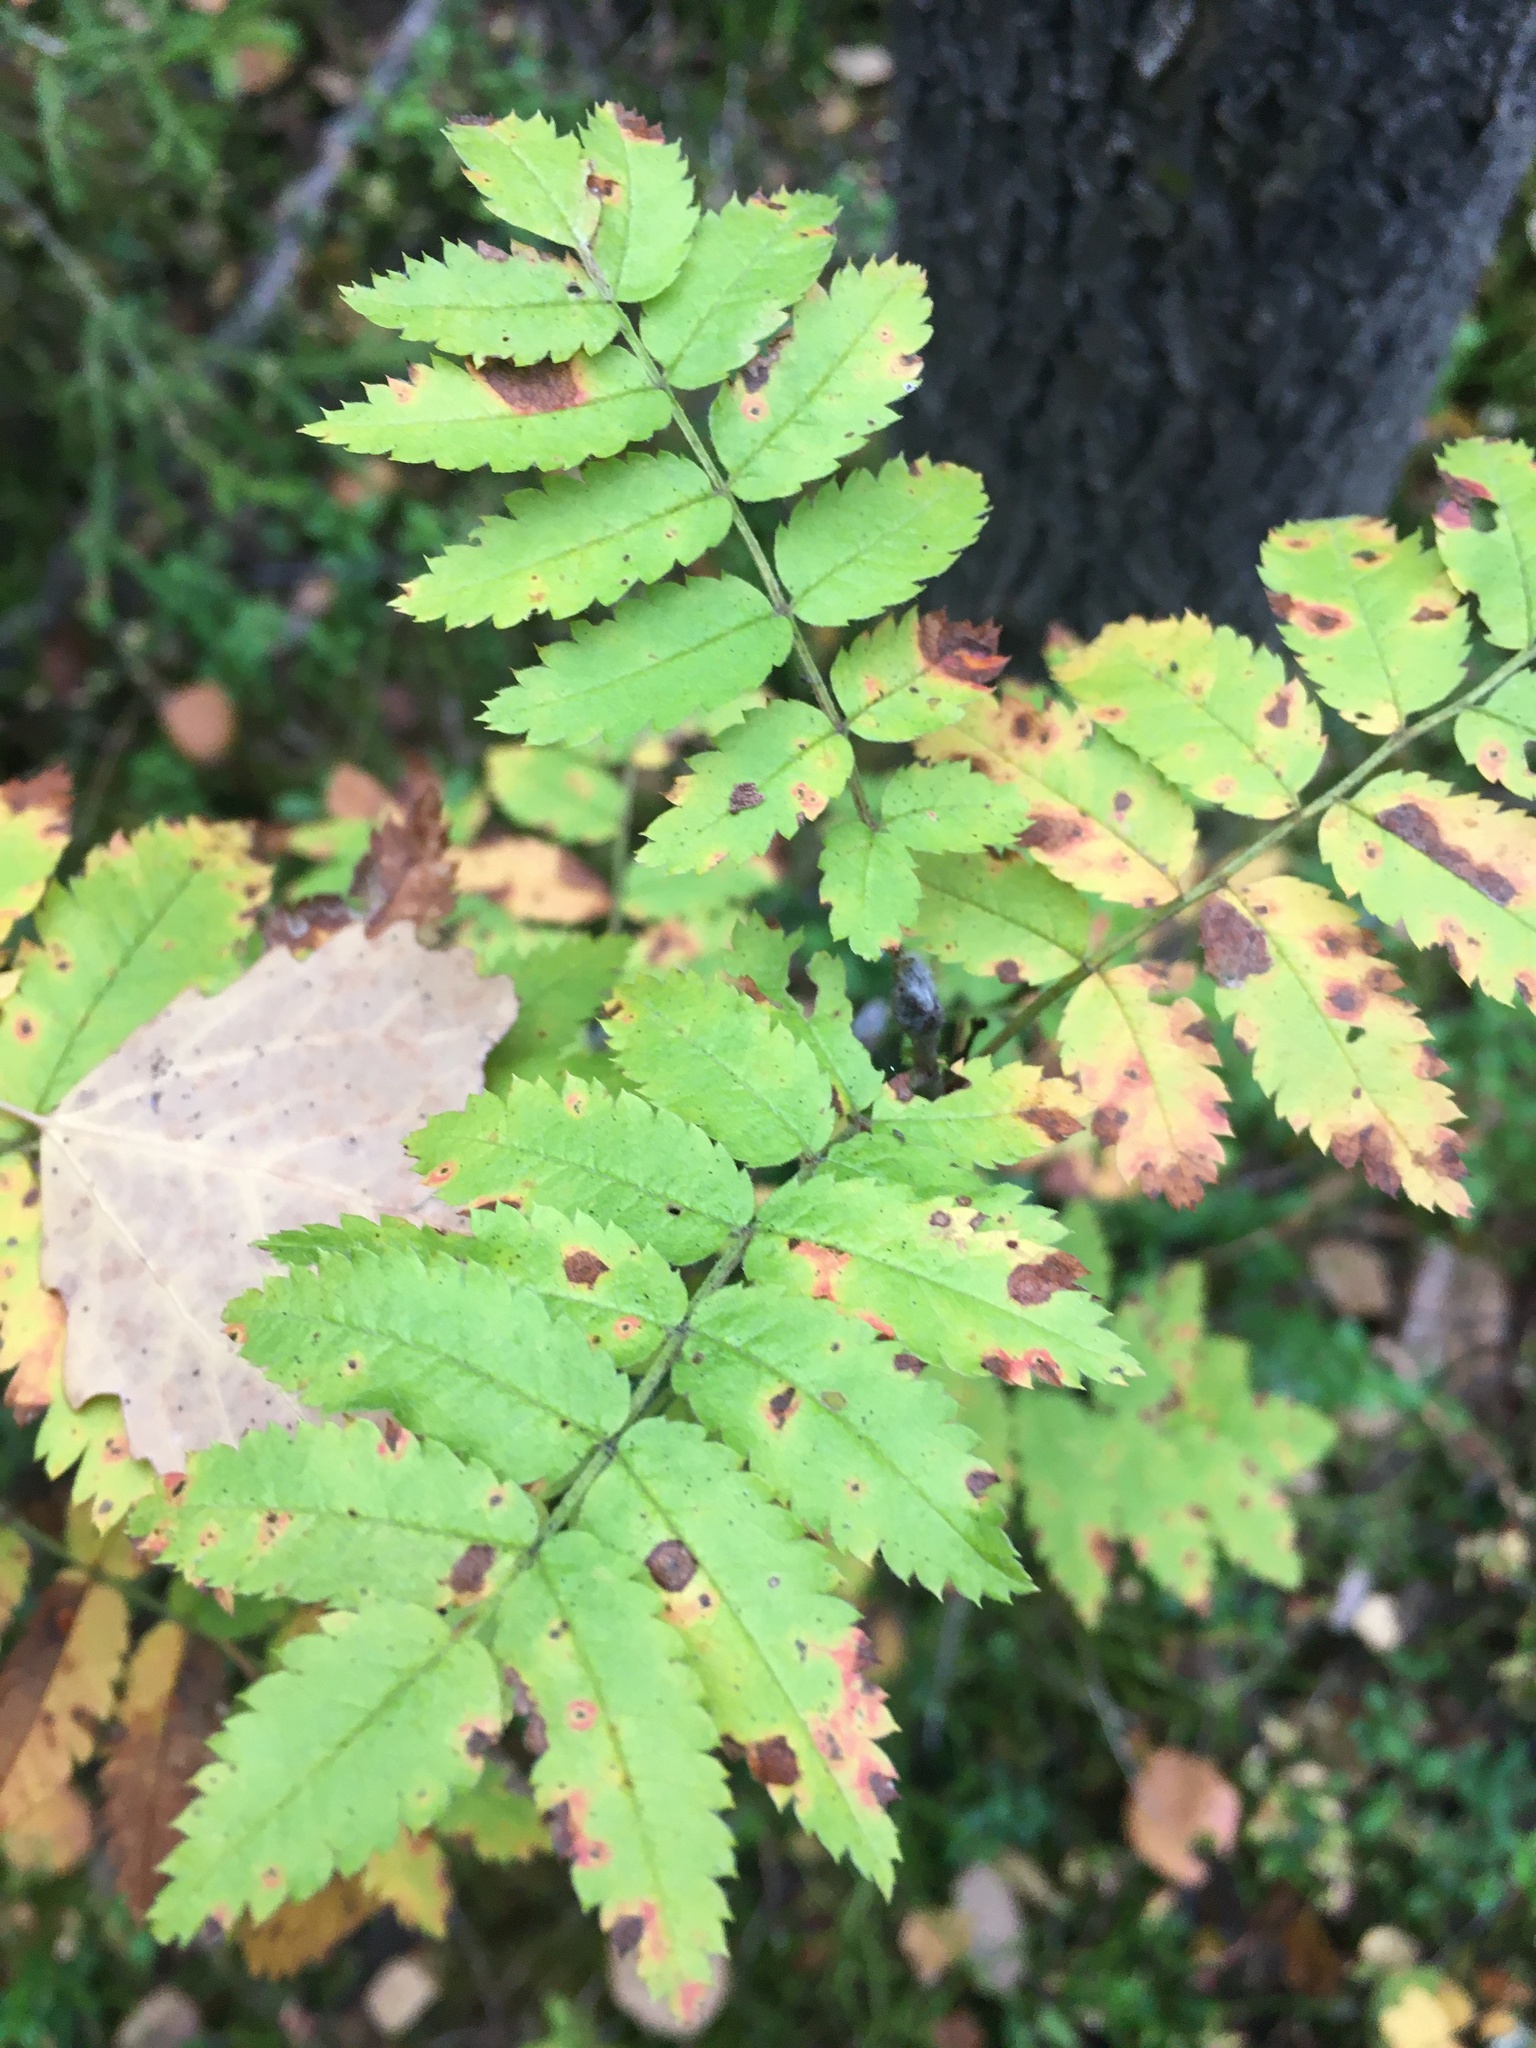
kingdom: Plantae
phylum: Tracheophyta
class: Magnoliopsida
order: Rosales
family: Rosaceae
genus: Sorbus
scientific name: Sorbus aucuparia
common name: Rowan
